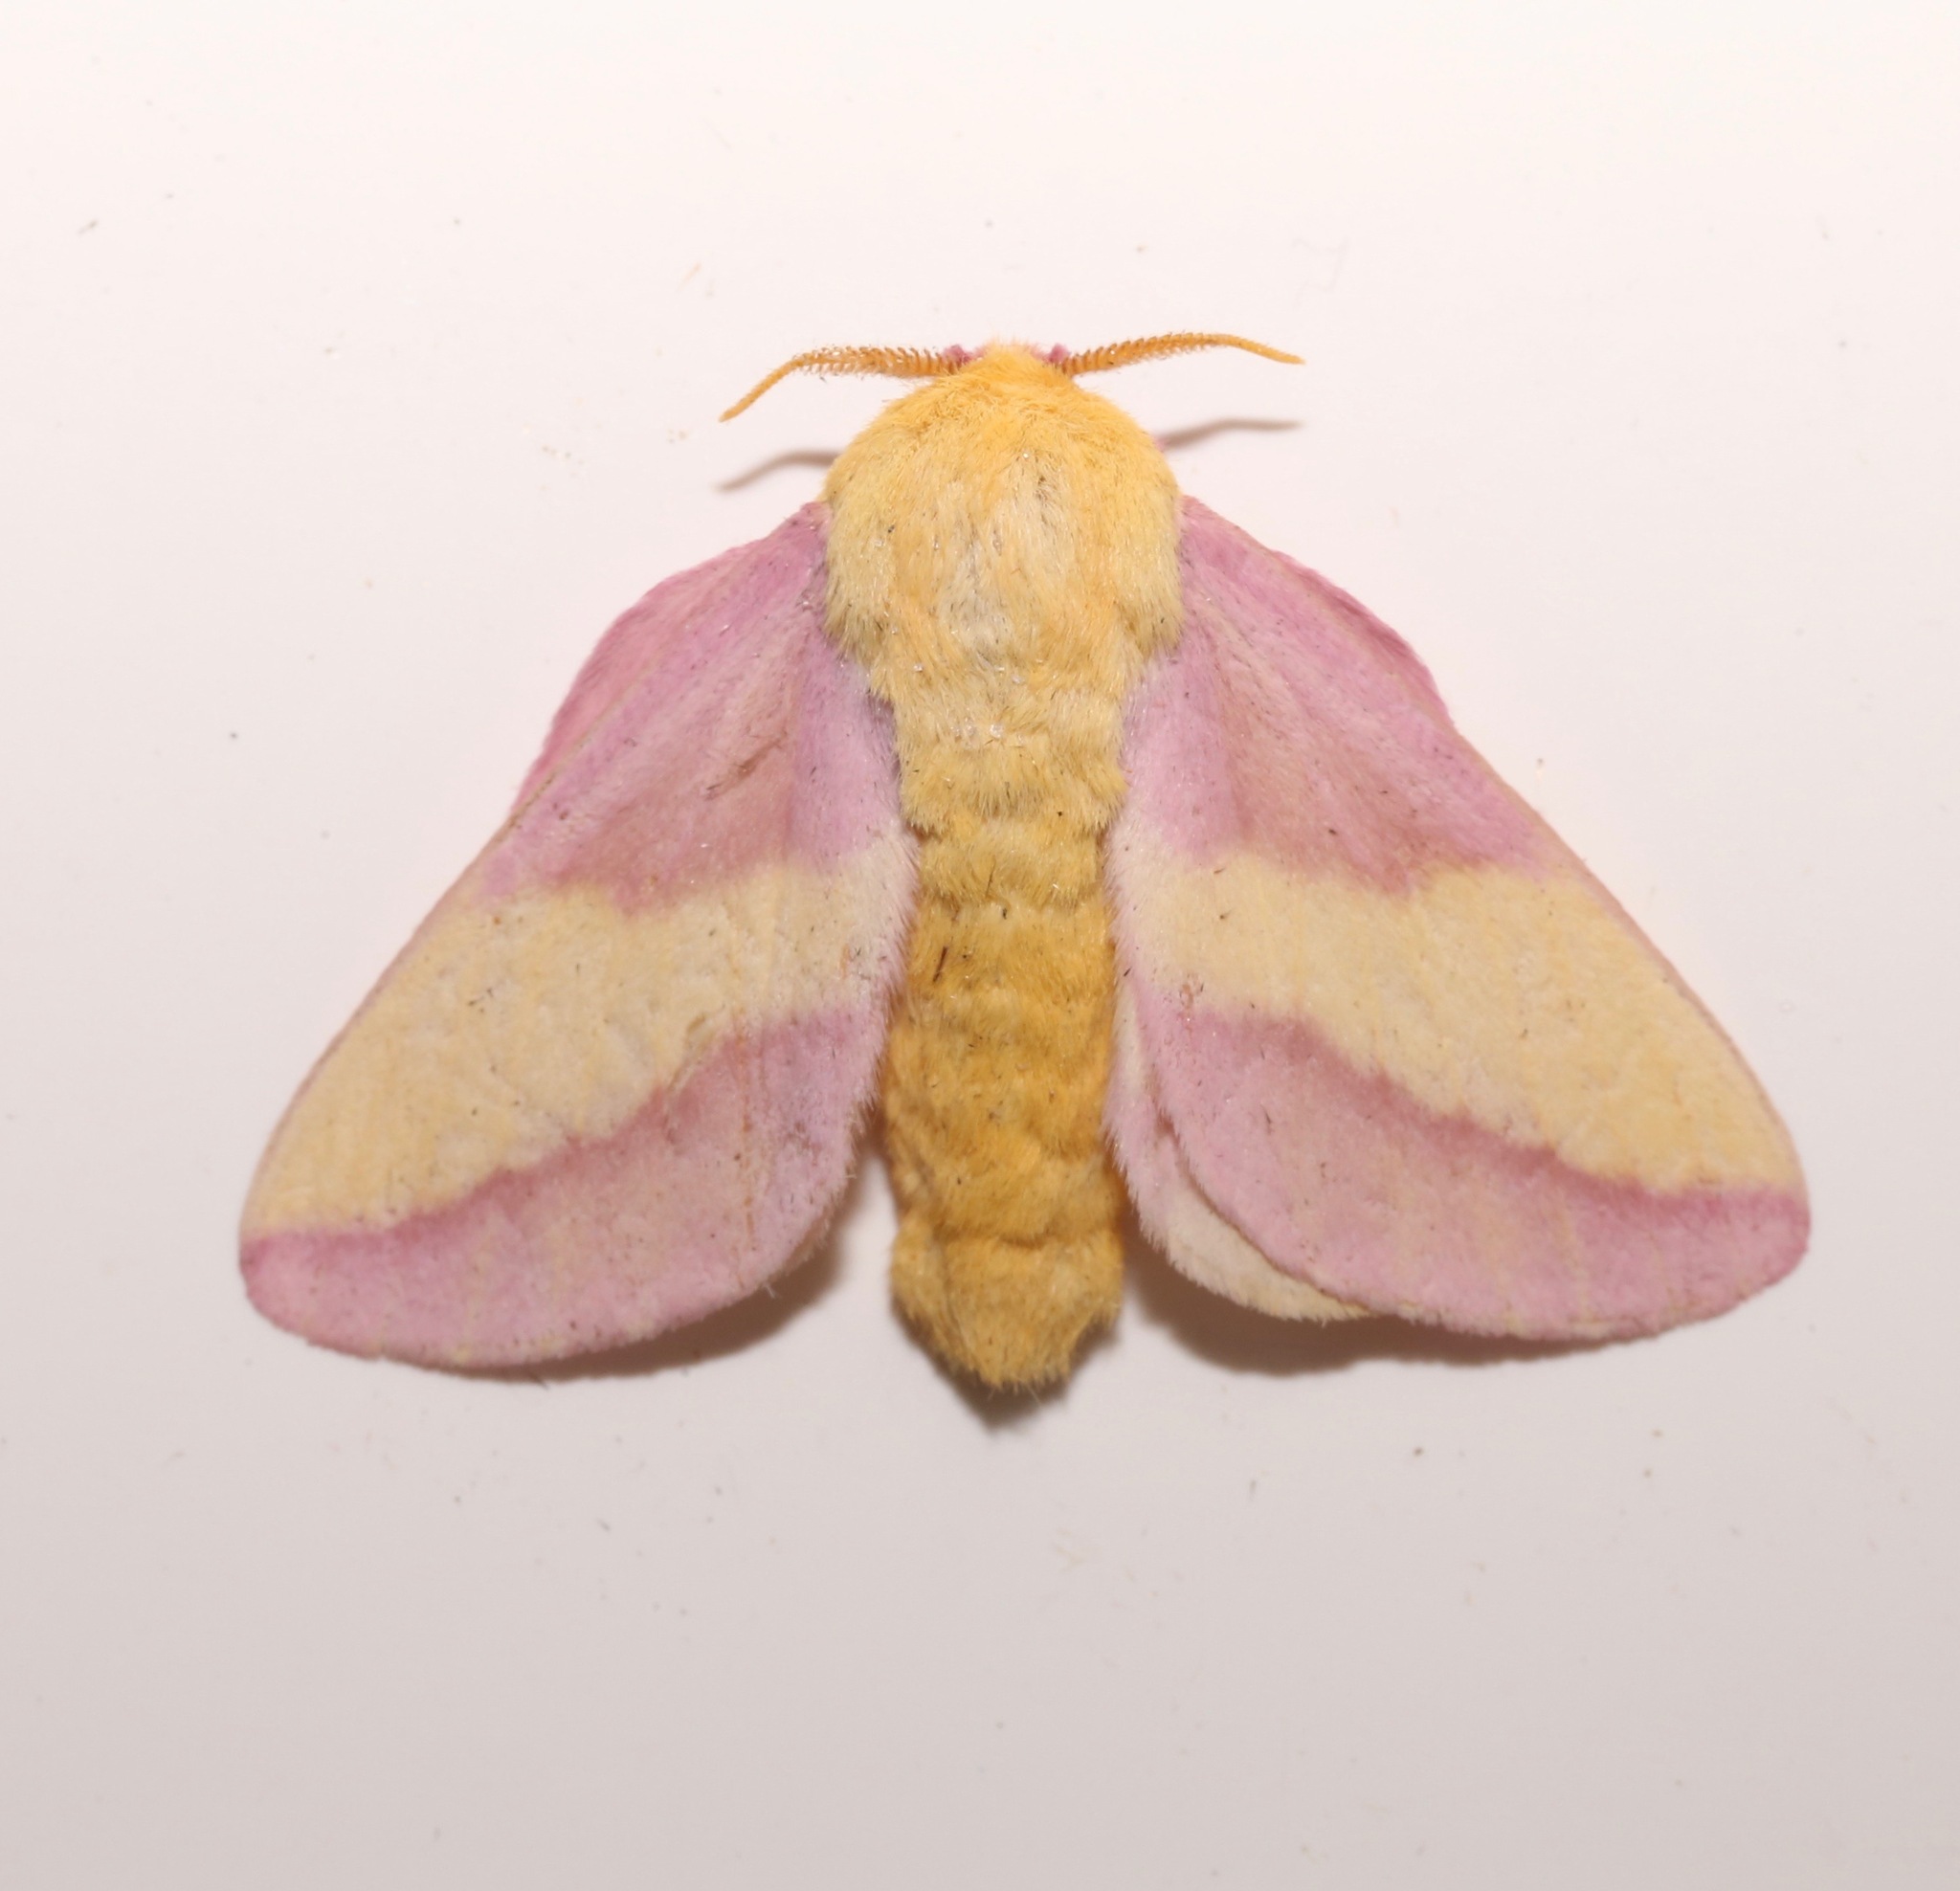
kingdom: Animalia
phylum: Arthropoda
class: Insecta
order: Lepidoptera
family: Saturniidae
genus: Dryocampa
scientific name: Dryocampa rubicunda
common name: Rosy maple moth
